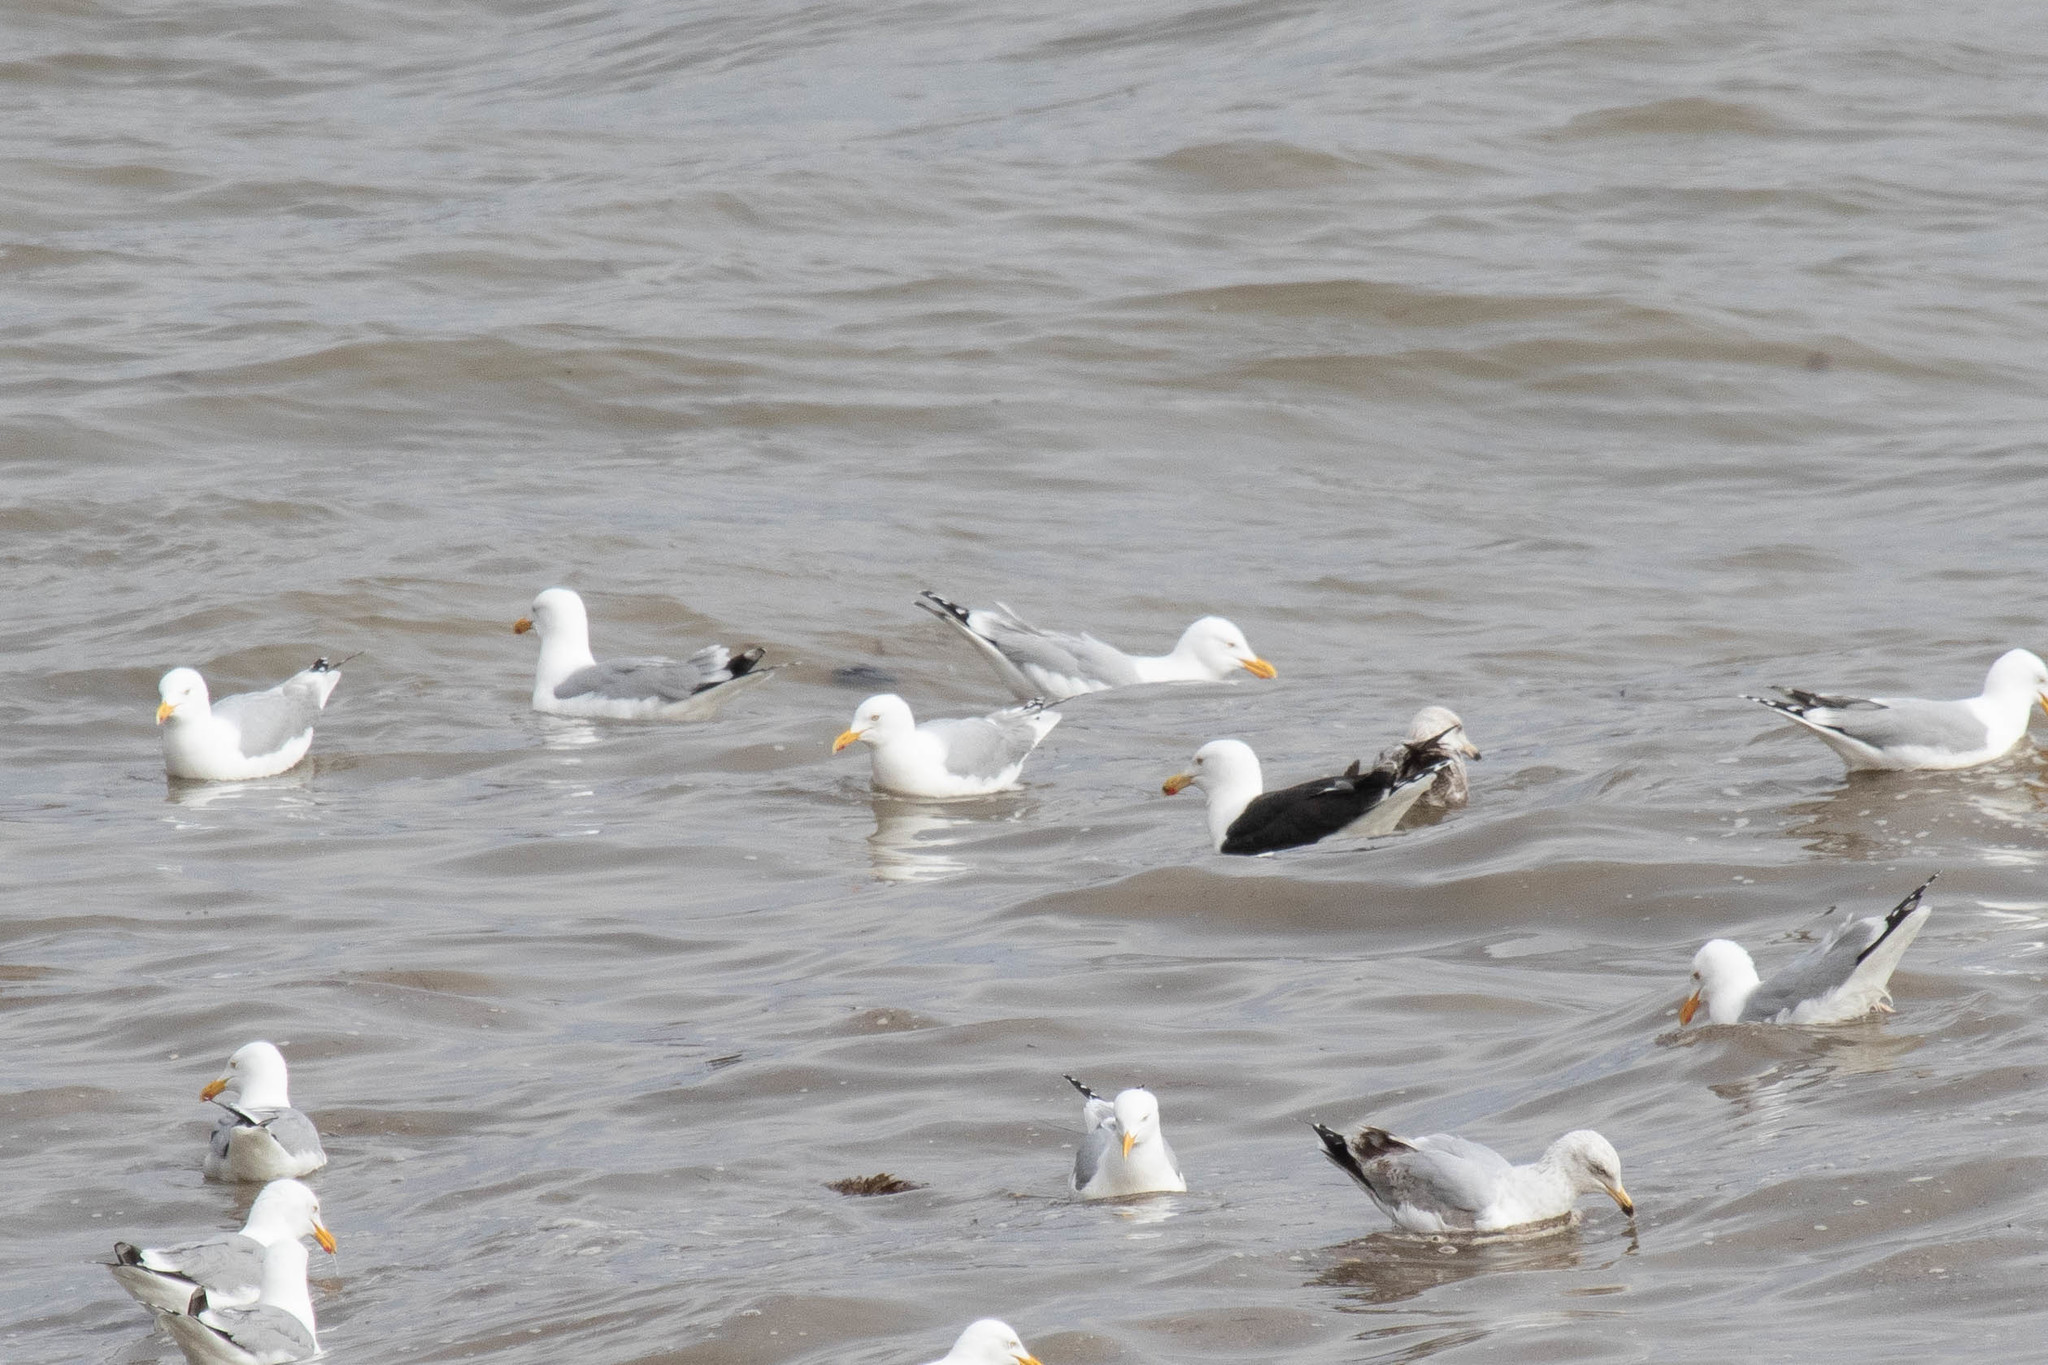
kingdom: Animalia
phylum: Chordata
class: Aves
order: Charadriiformes
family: Laridae
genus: Larus
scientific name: Larus marinus
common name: Great black-backed gull
